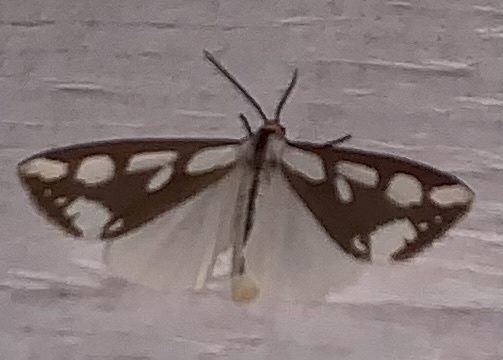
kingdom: Animalia
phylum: Arthropoda
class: Insecta
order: Lepidoptera
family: Erebidae
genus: Haploa
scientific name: Haploa confusa
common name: Confused haploa moth
